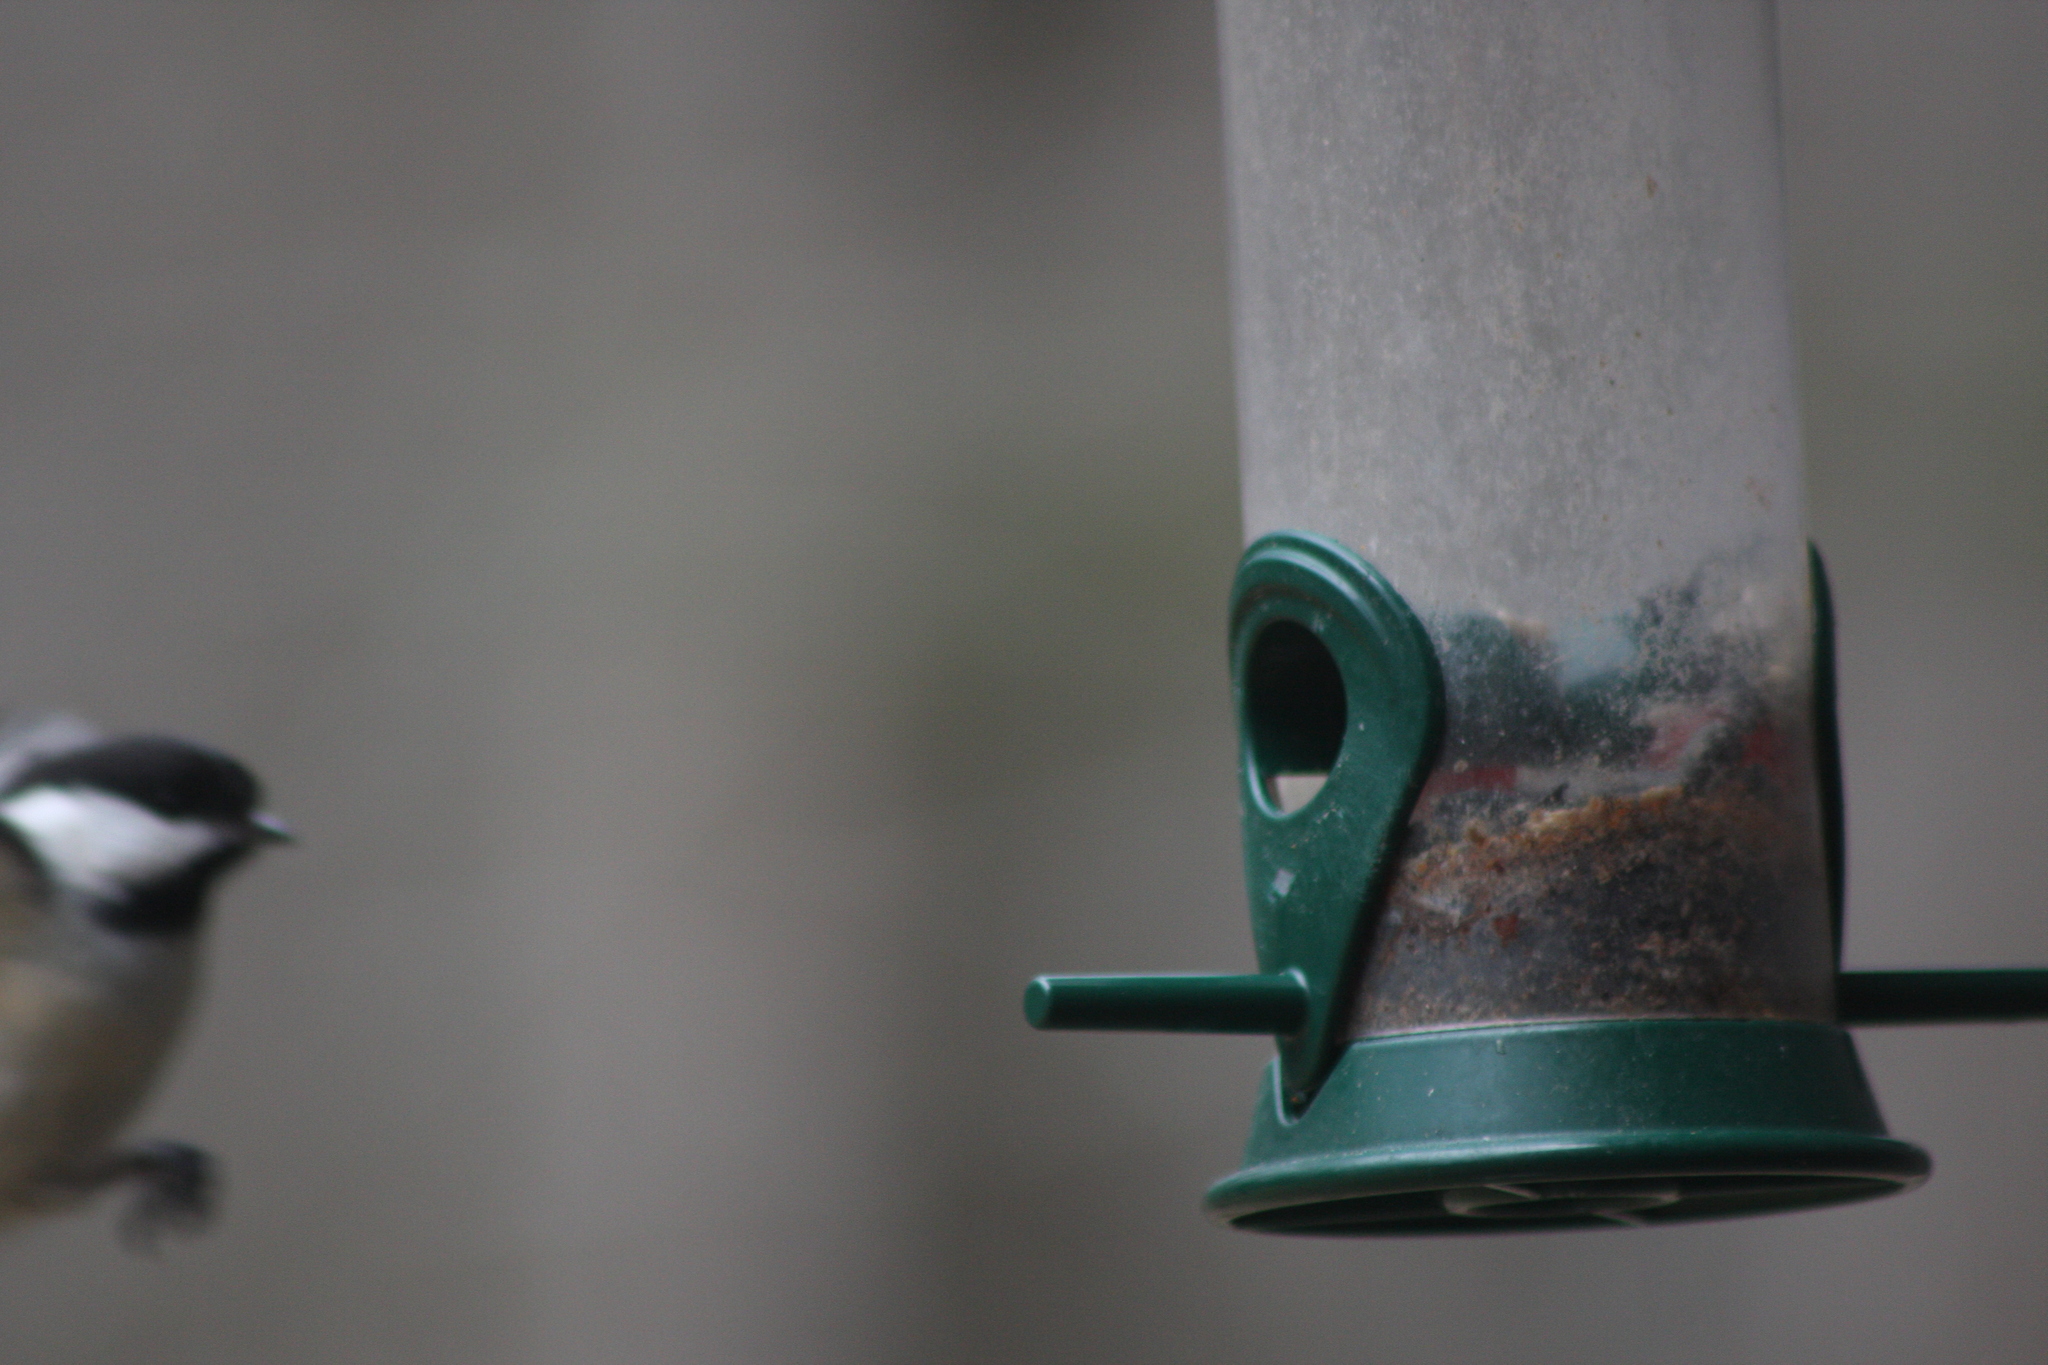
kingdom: Animalia
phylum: Chordata
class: Aves
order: Passeriformes
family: Paridae
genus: Poecile
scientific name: Poecile atricapillus
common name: Black-capped chickadee
